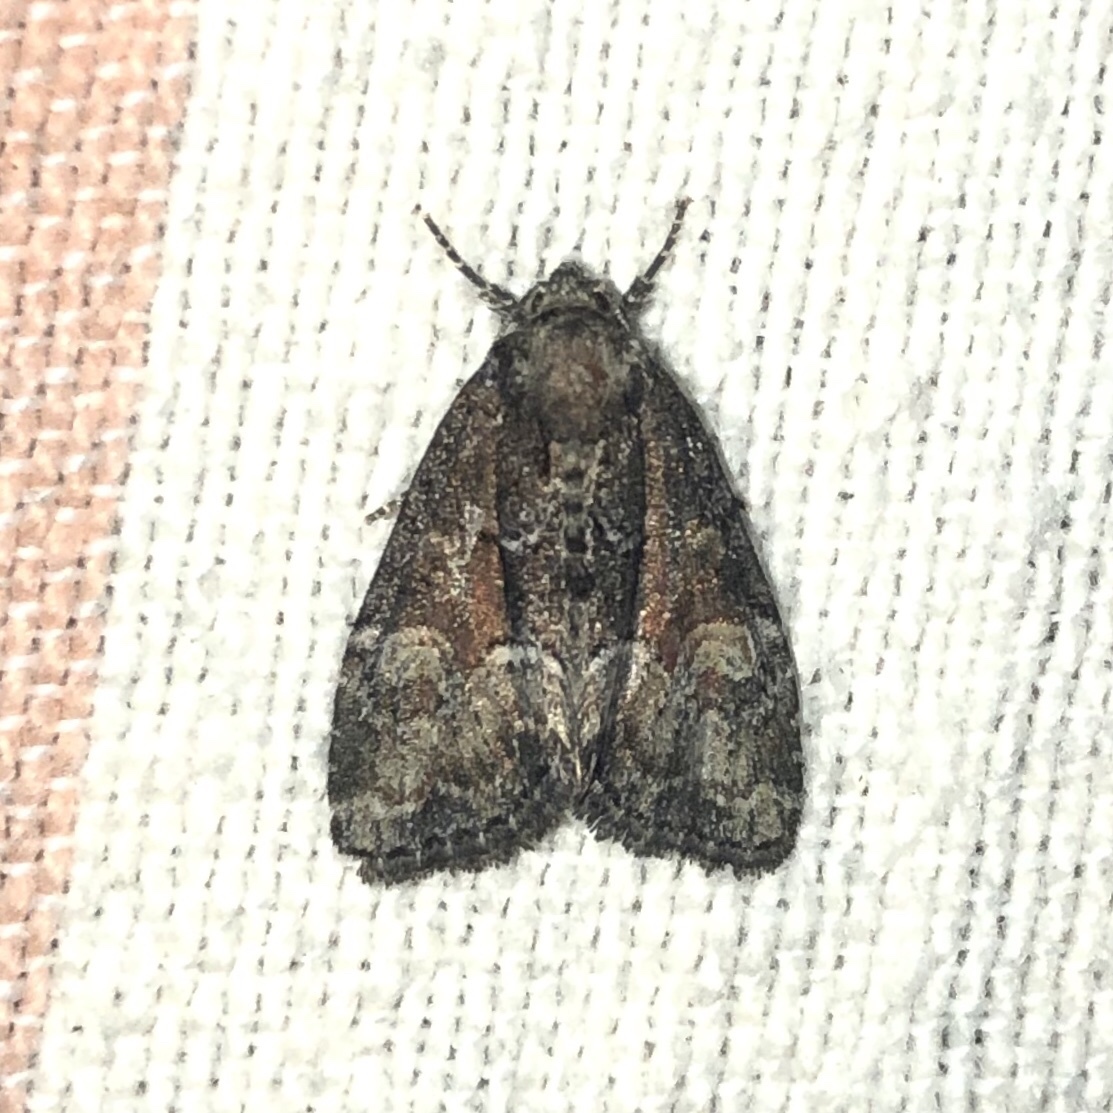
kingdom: Animalia
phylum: Arthropoda
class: Insecta
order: Lepidoptera
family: Noctuidae
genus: Neoligia
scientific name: Neoligia subjuncta
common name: Connected brocade
